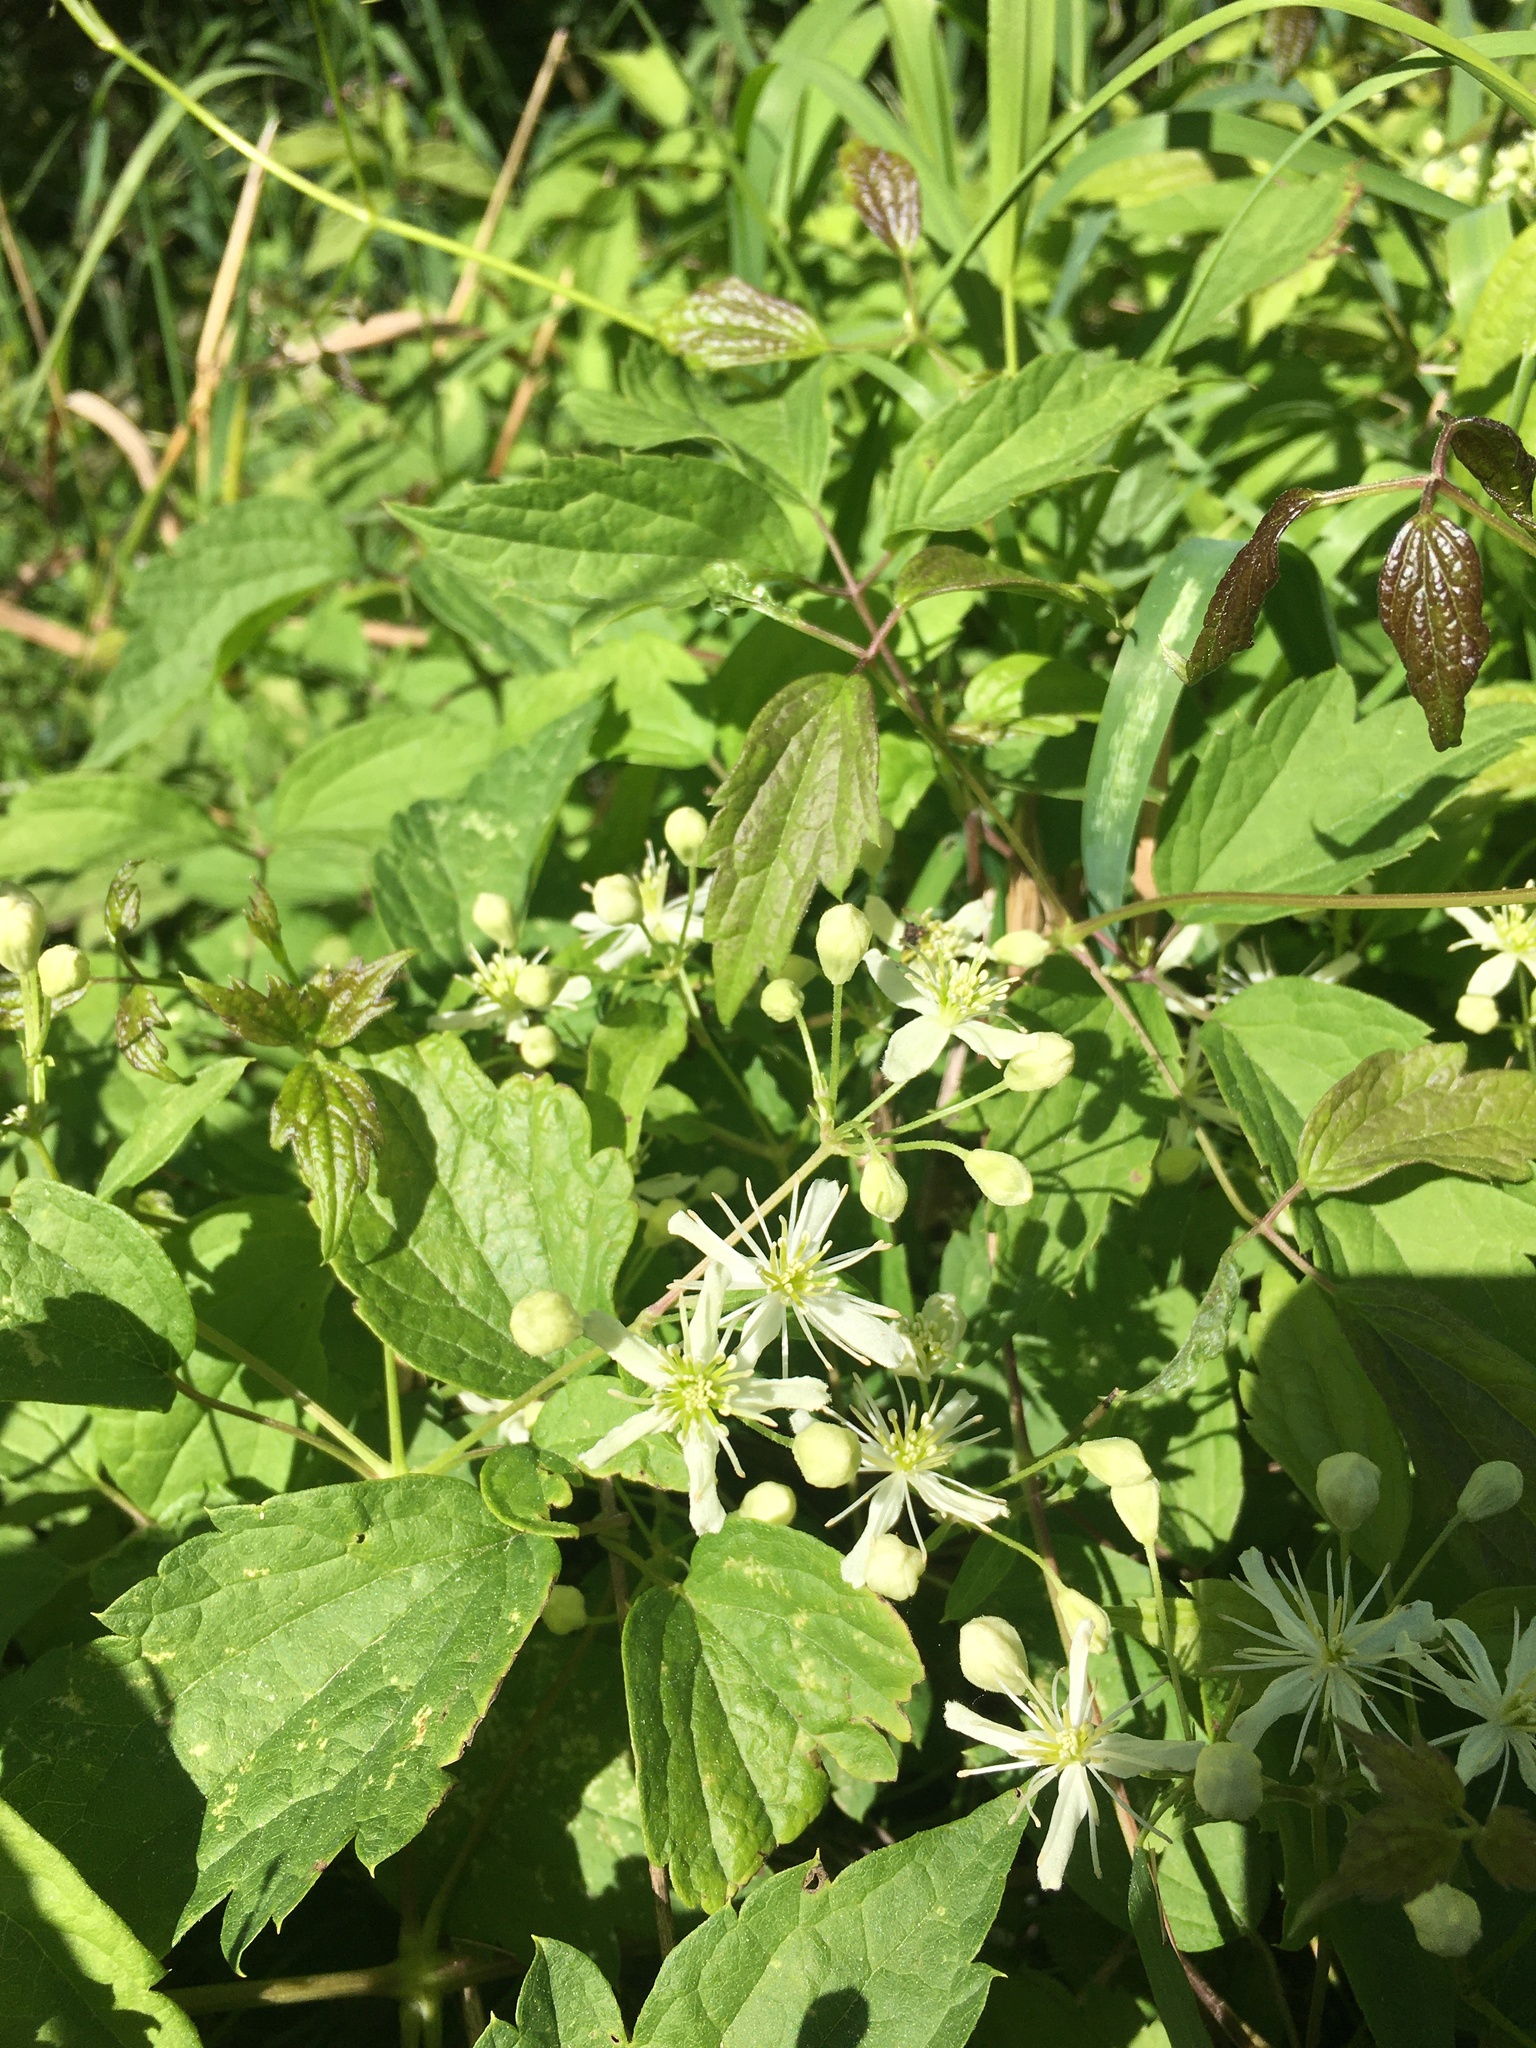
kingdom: Plantae
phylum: Tracheophyta
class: Magnoliopsida
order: Ranunculales
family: Ranunculaceae
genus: Clematis
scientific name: Clematis virginiana
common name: Virgin's-bower
